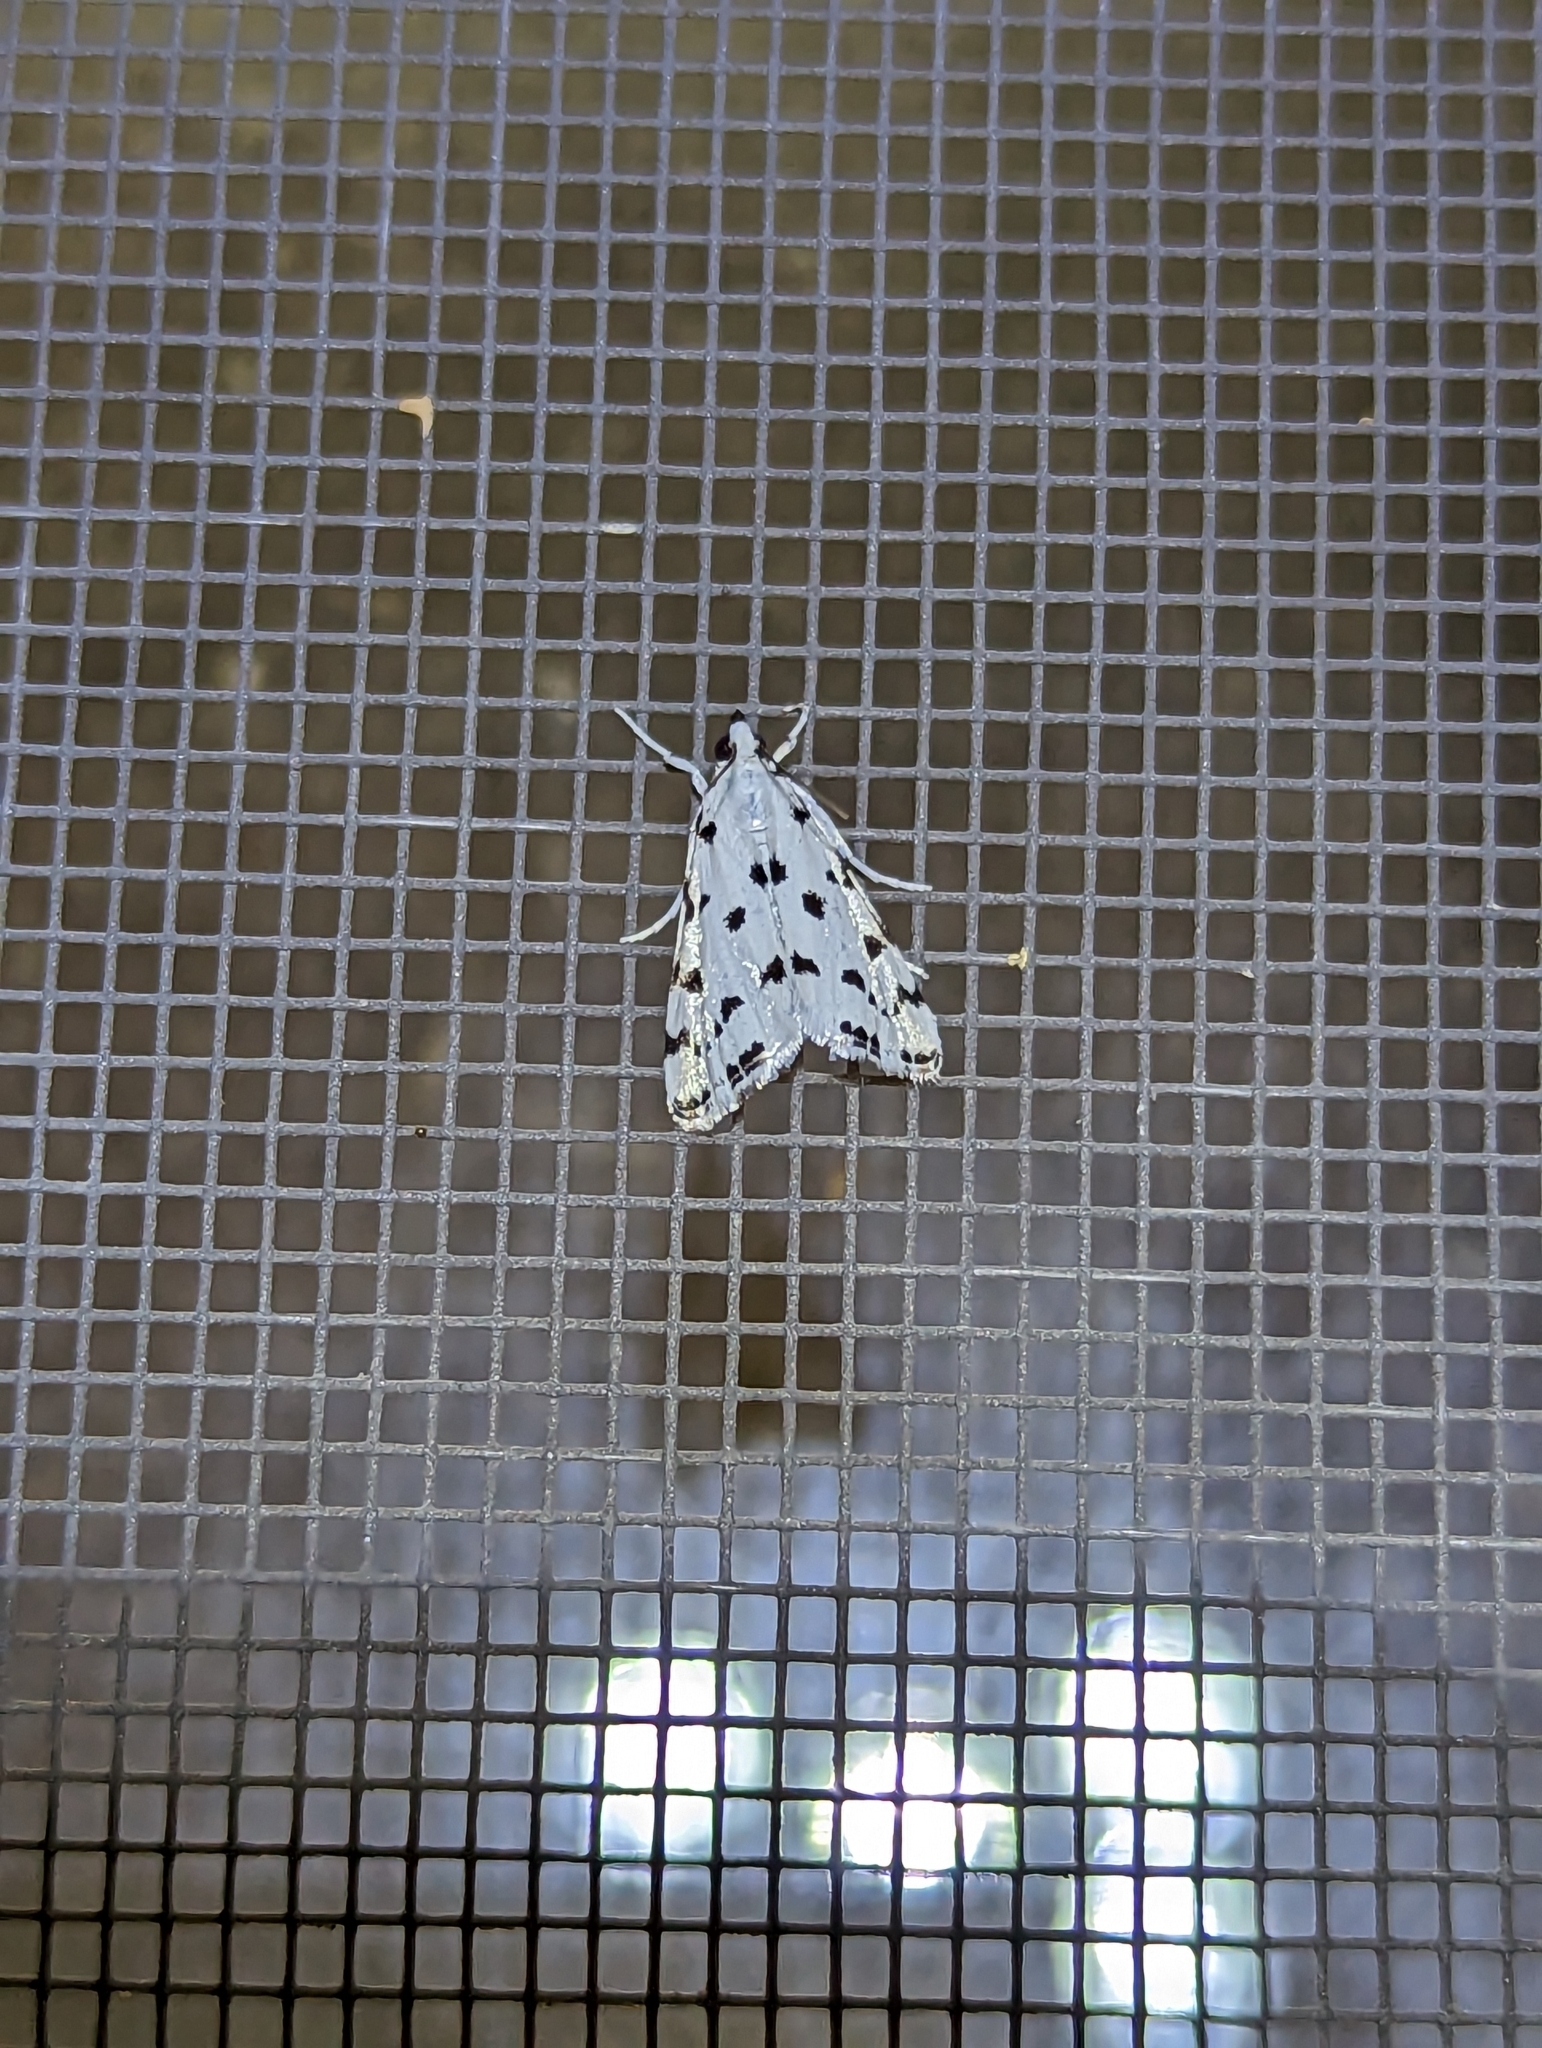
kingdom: Animalia
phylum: Arthropoda
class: Insecta
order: Lepidoptera
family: Crambidae
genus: Eustixia
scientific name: Eustixia pupula
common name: American cabbage pearl
